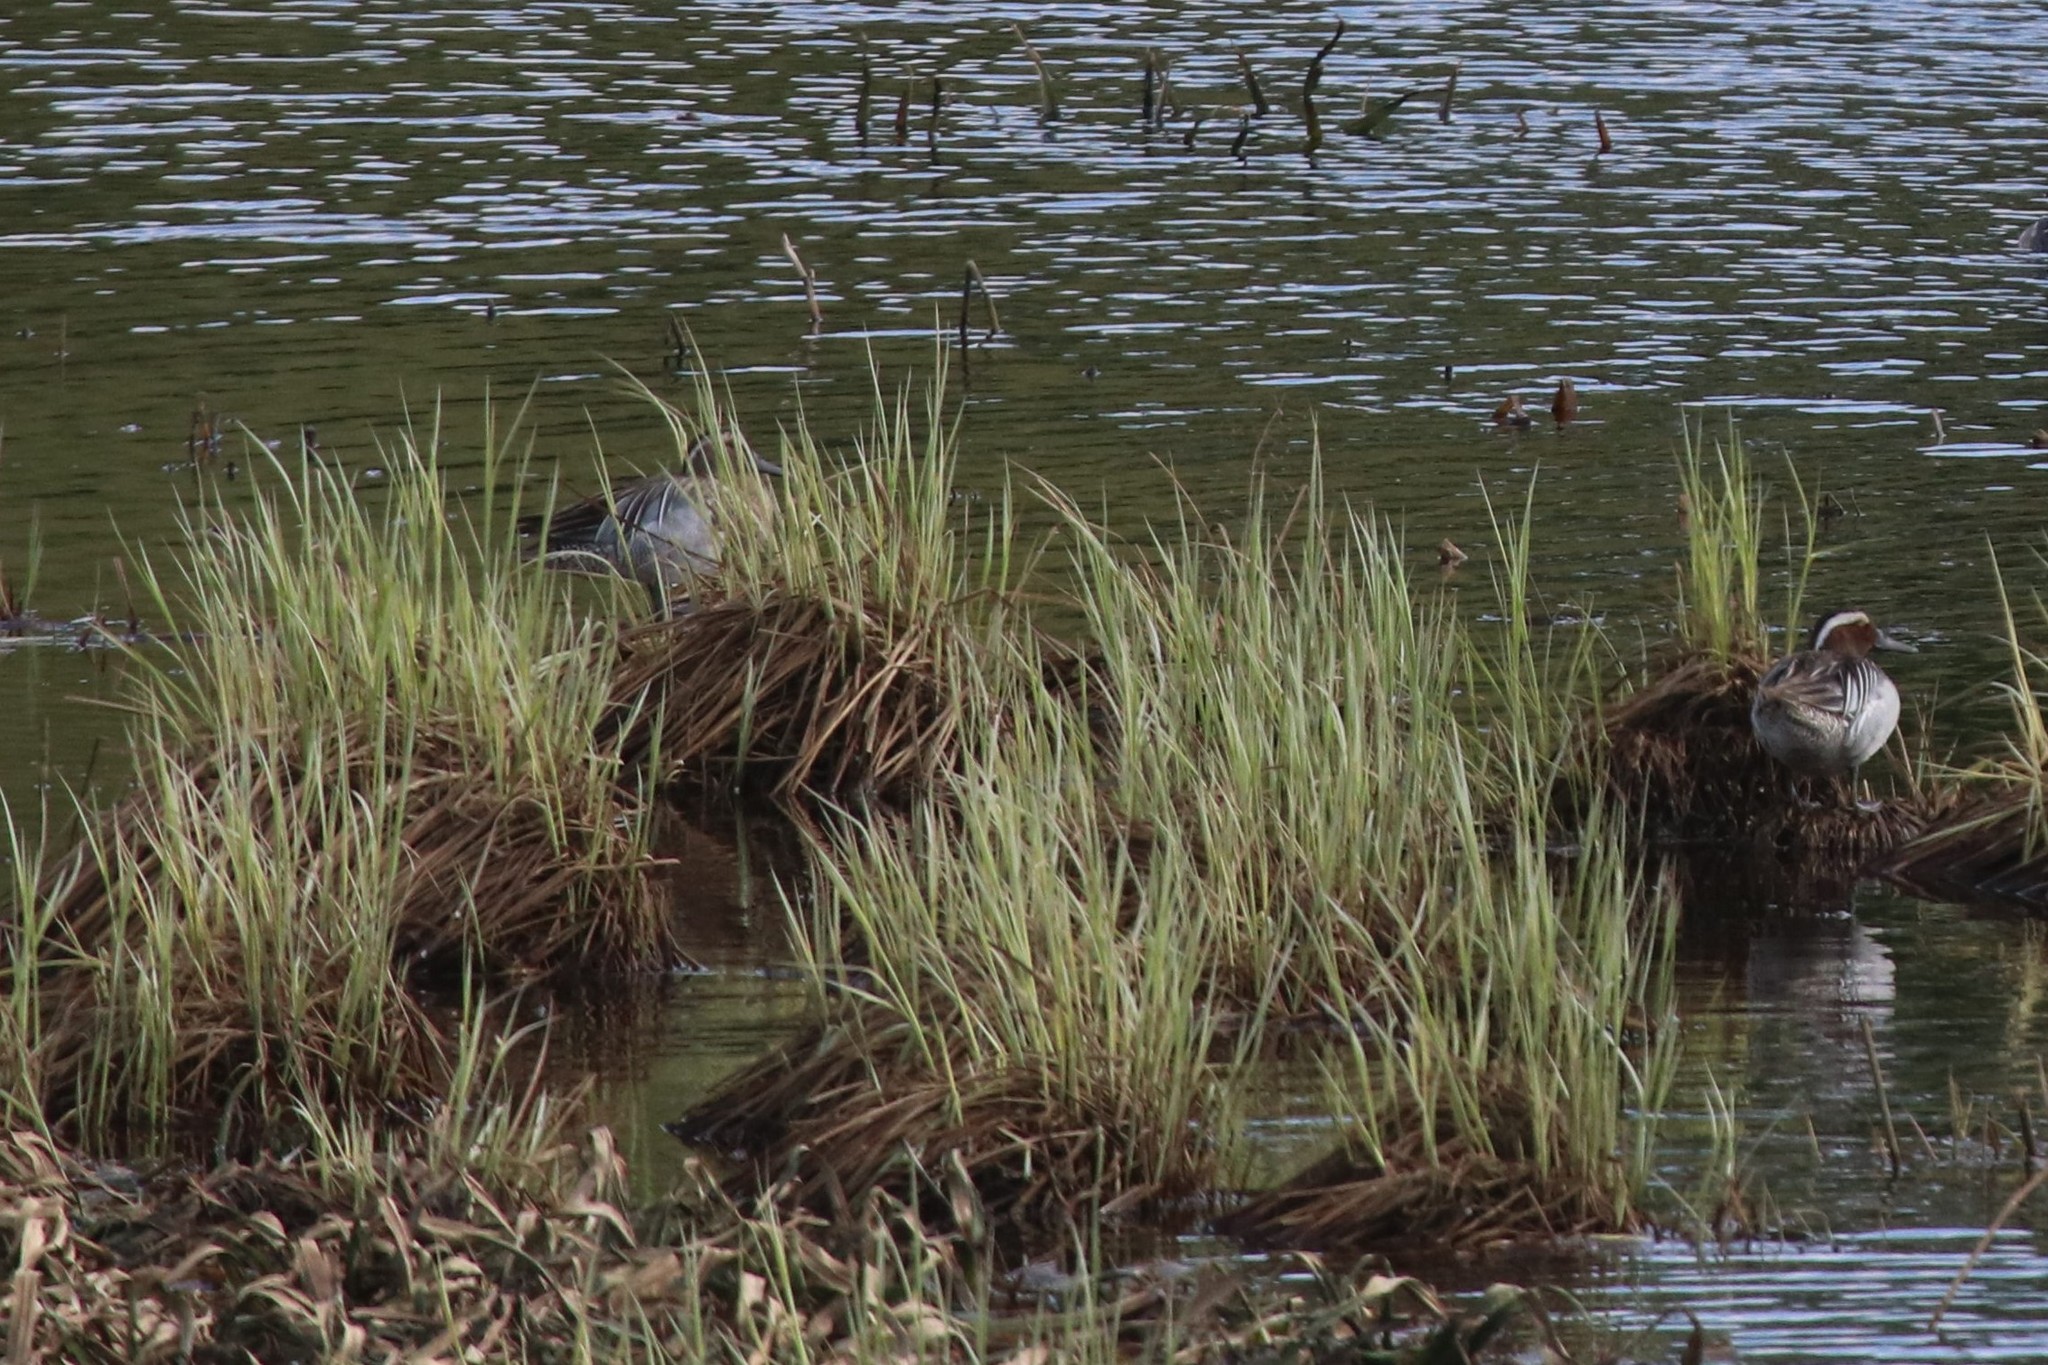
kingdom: Animalia
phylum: Chordata
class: Aves
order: Anseriformes
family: Anatidae
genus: Spatula
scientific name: Spatula querquedula
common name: Garganey
